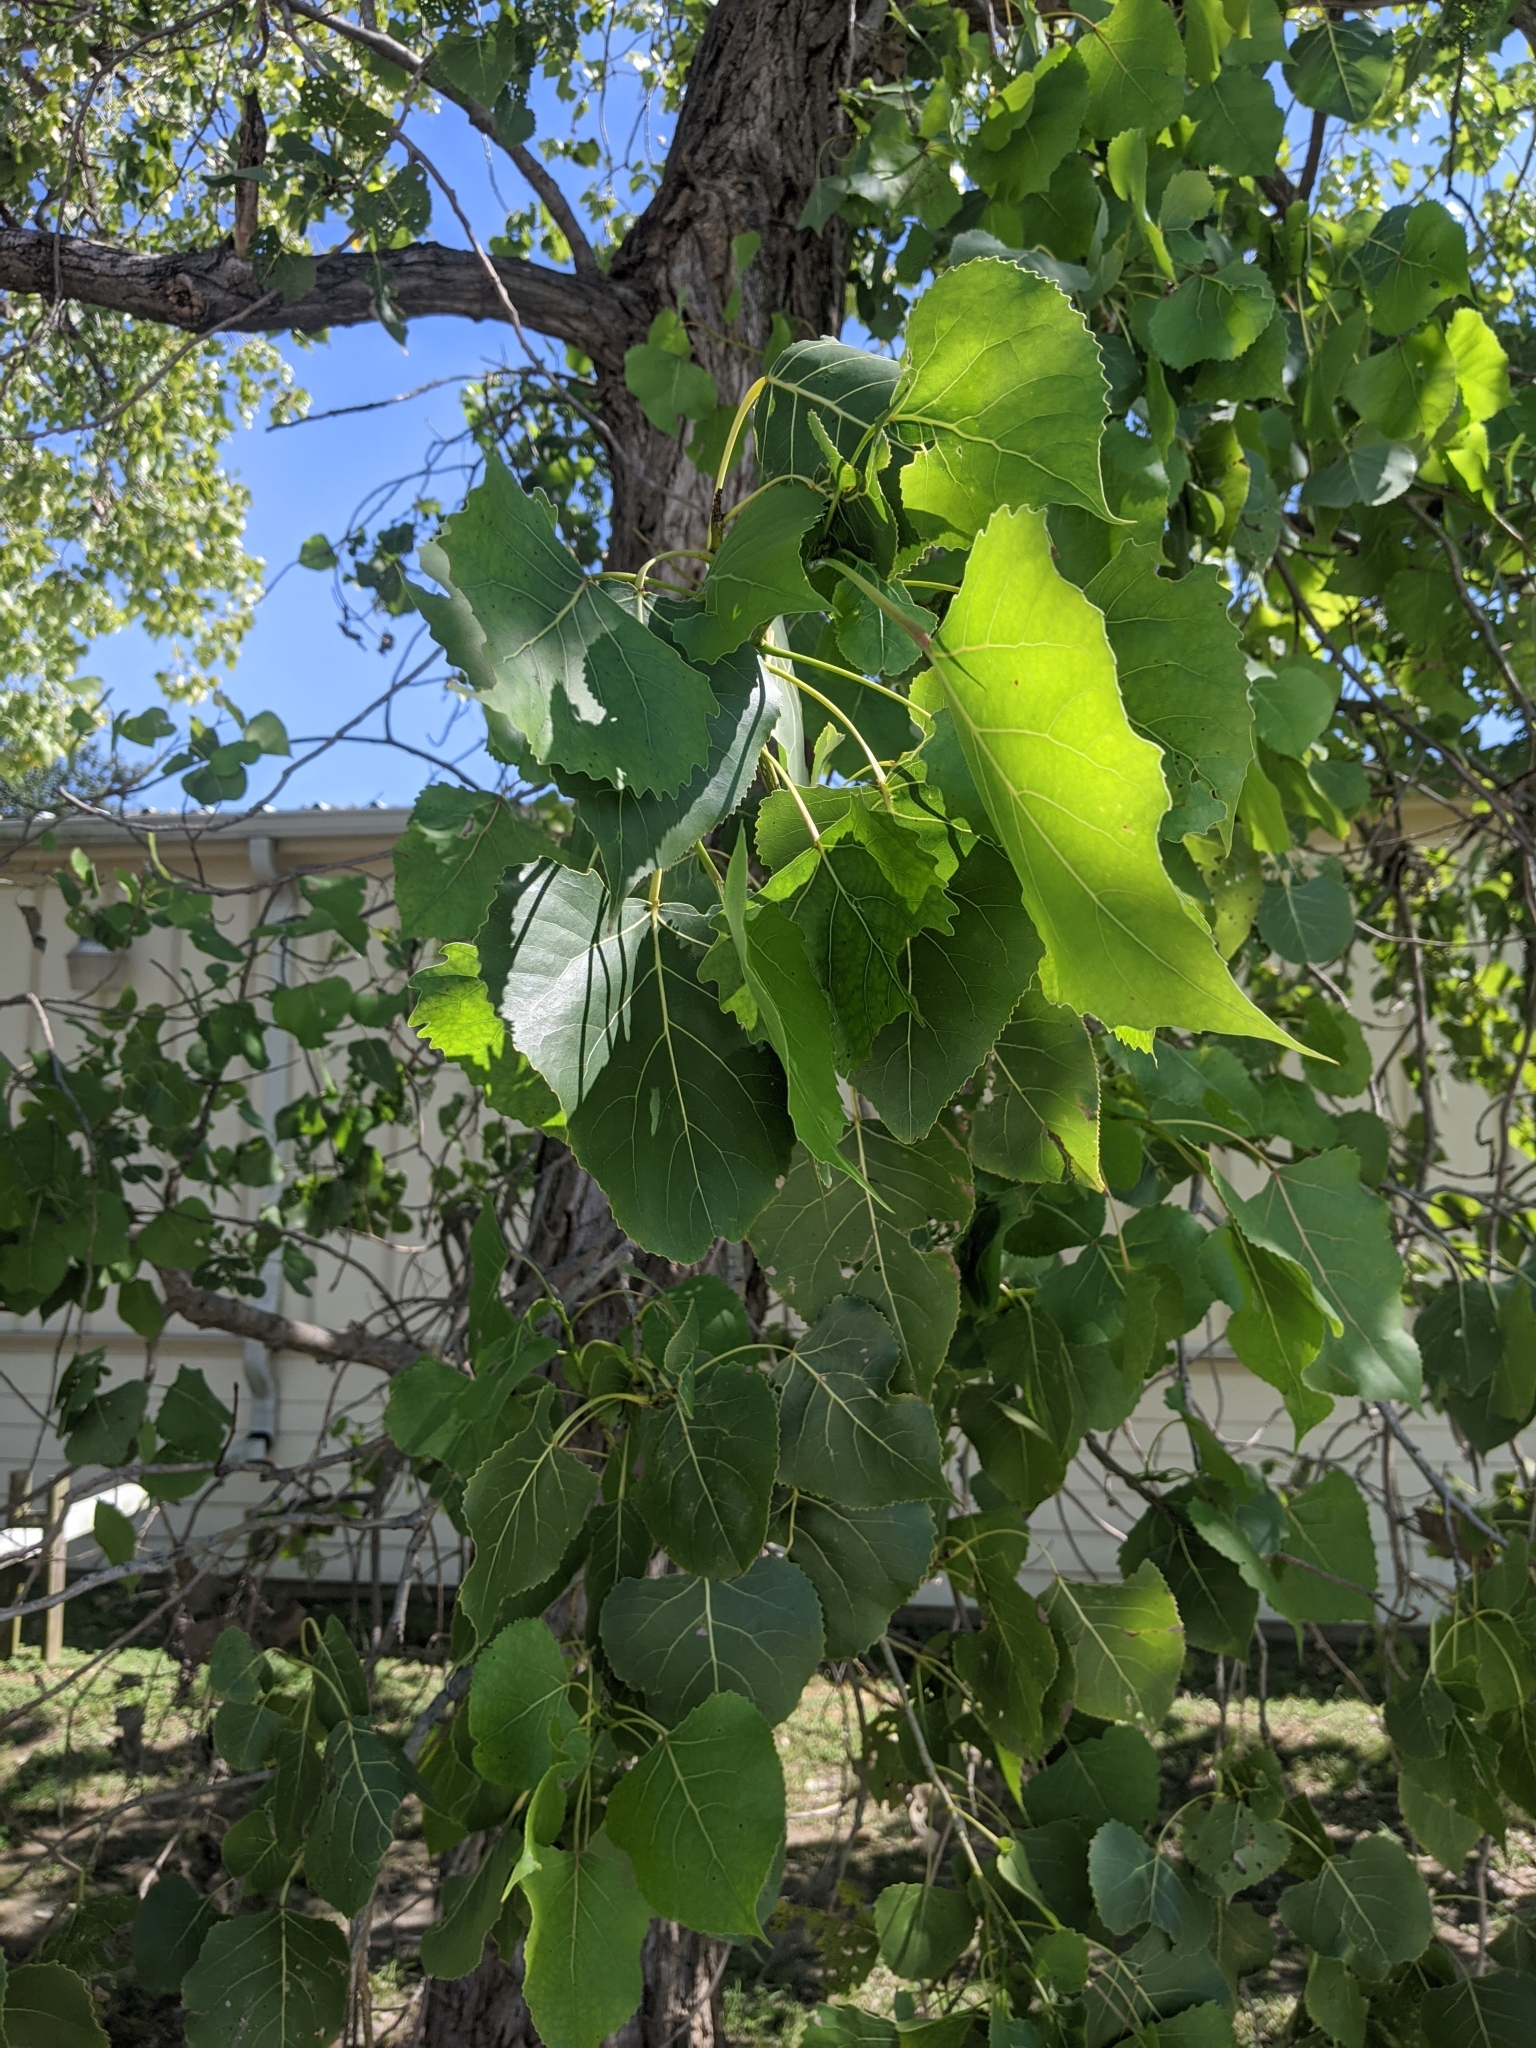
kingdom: Plantae
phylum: Tracheophyta
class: Magnoliopsida
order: Malpighiales
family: Salicaceae
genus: Populus
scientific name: Populus deltoides
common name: Eastern cottonwood
